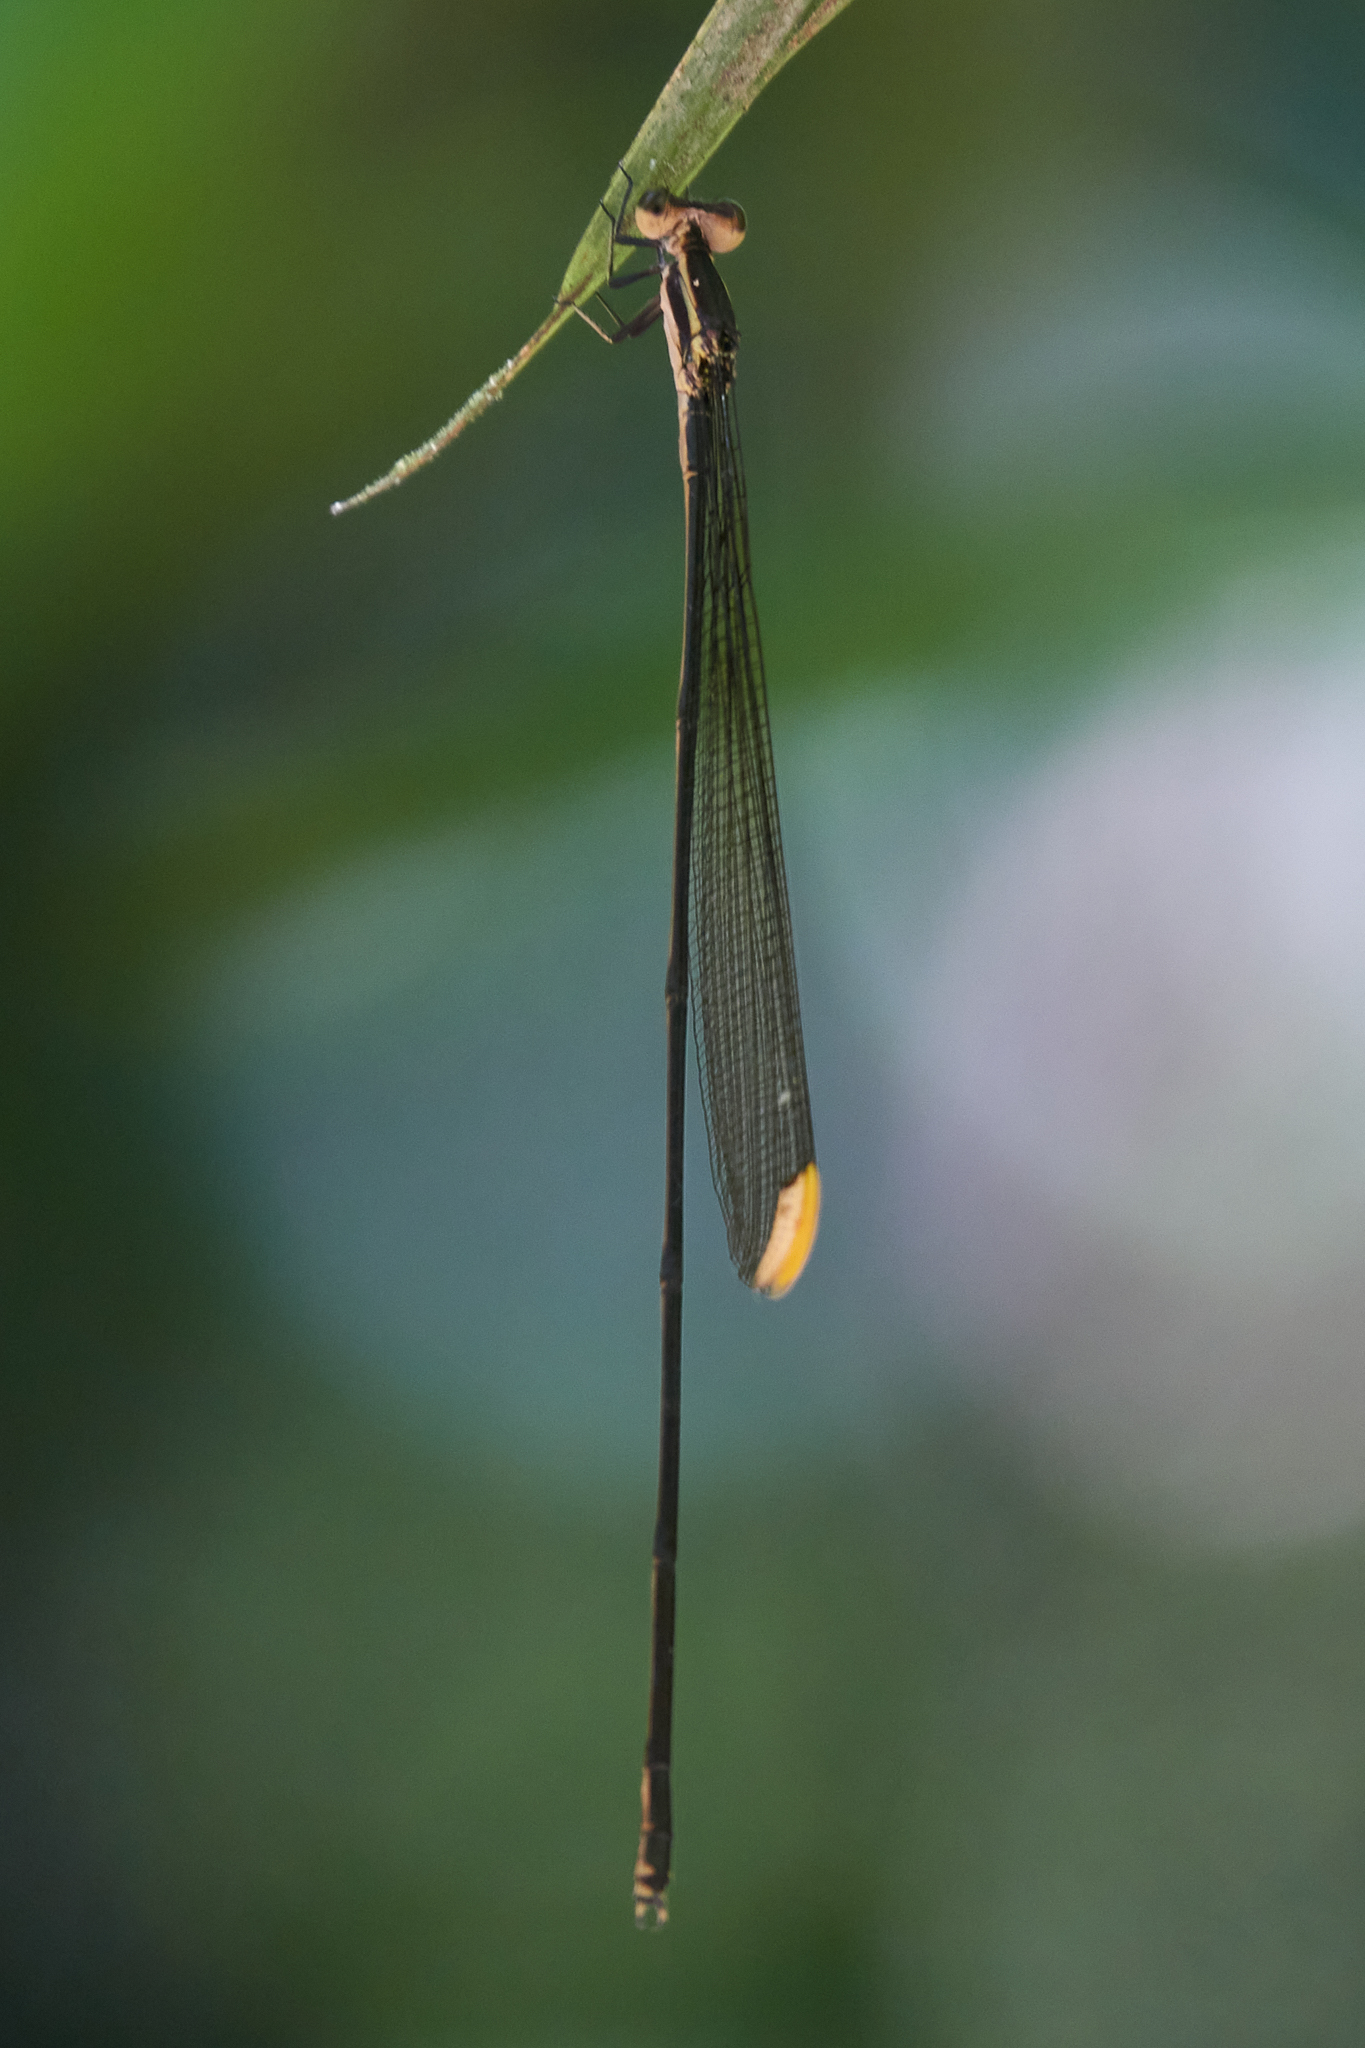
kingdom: Animalia
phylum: Arthropoda
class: Insecta
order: Odonata
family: Coenagrionidae
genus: Mecistogaster
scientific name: Mecistogaster ornata
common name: Ornate helicopter
